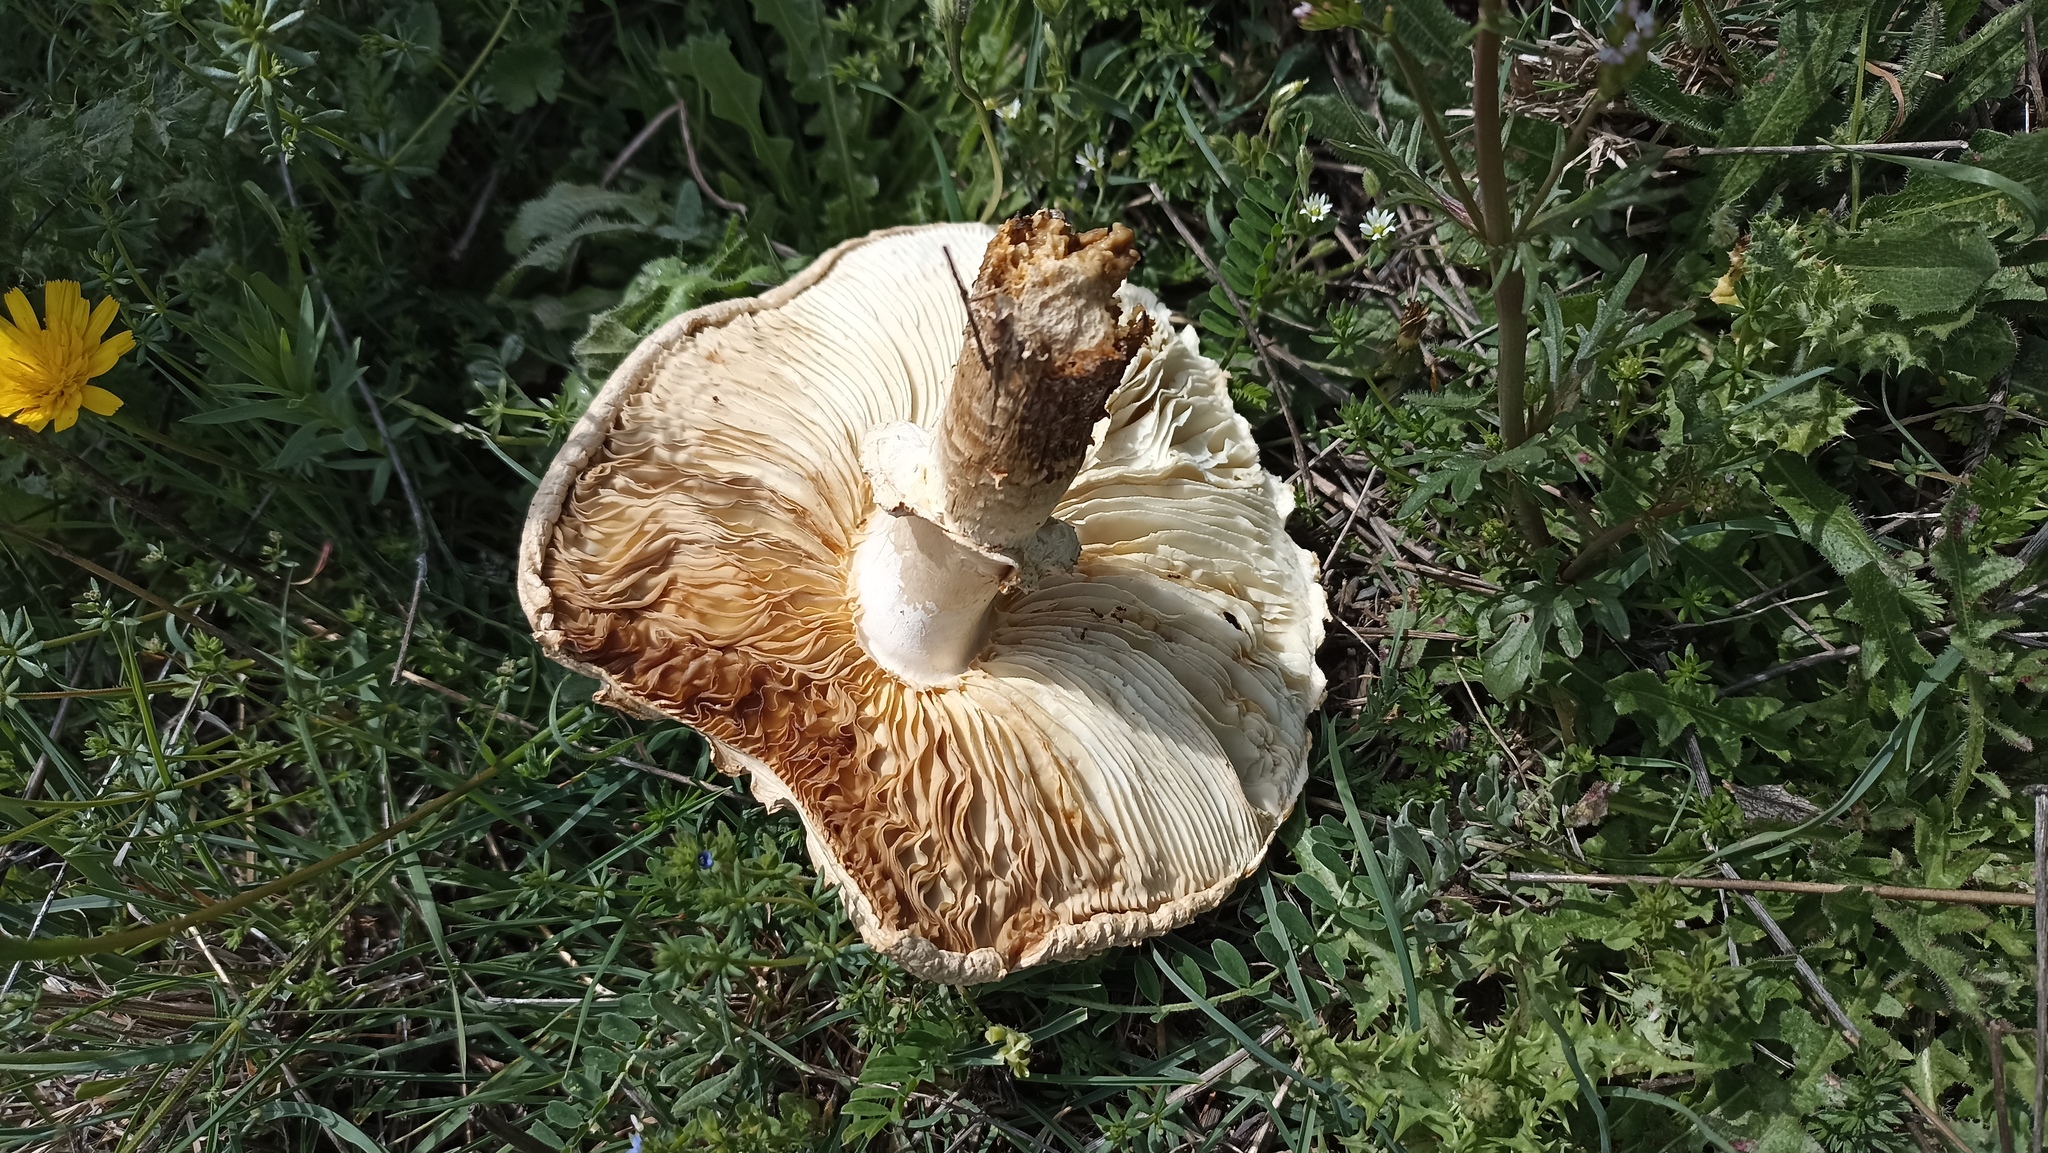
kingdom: Fungi
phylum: Basidiomycota
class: Agaricomycetes
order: Agaricales
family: Amanitaceae
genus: Amanita
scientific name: Amanita vittadinii
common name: Barefoot amanita
